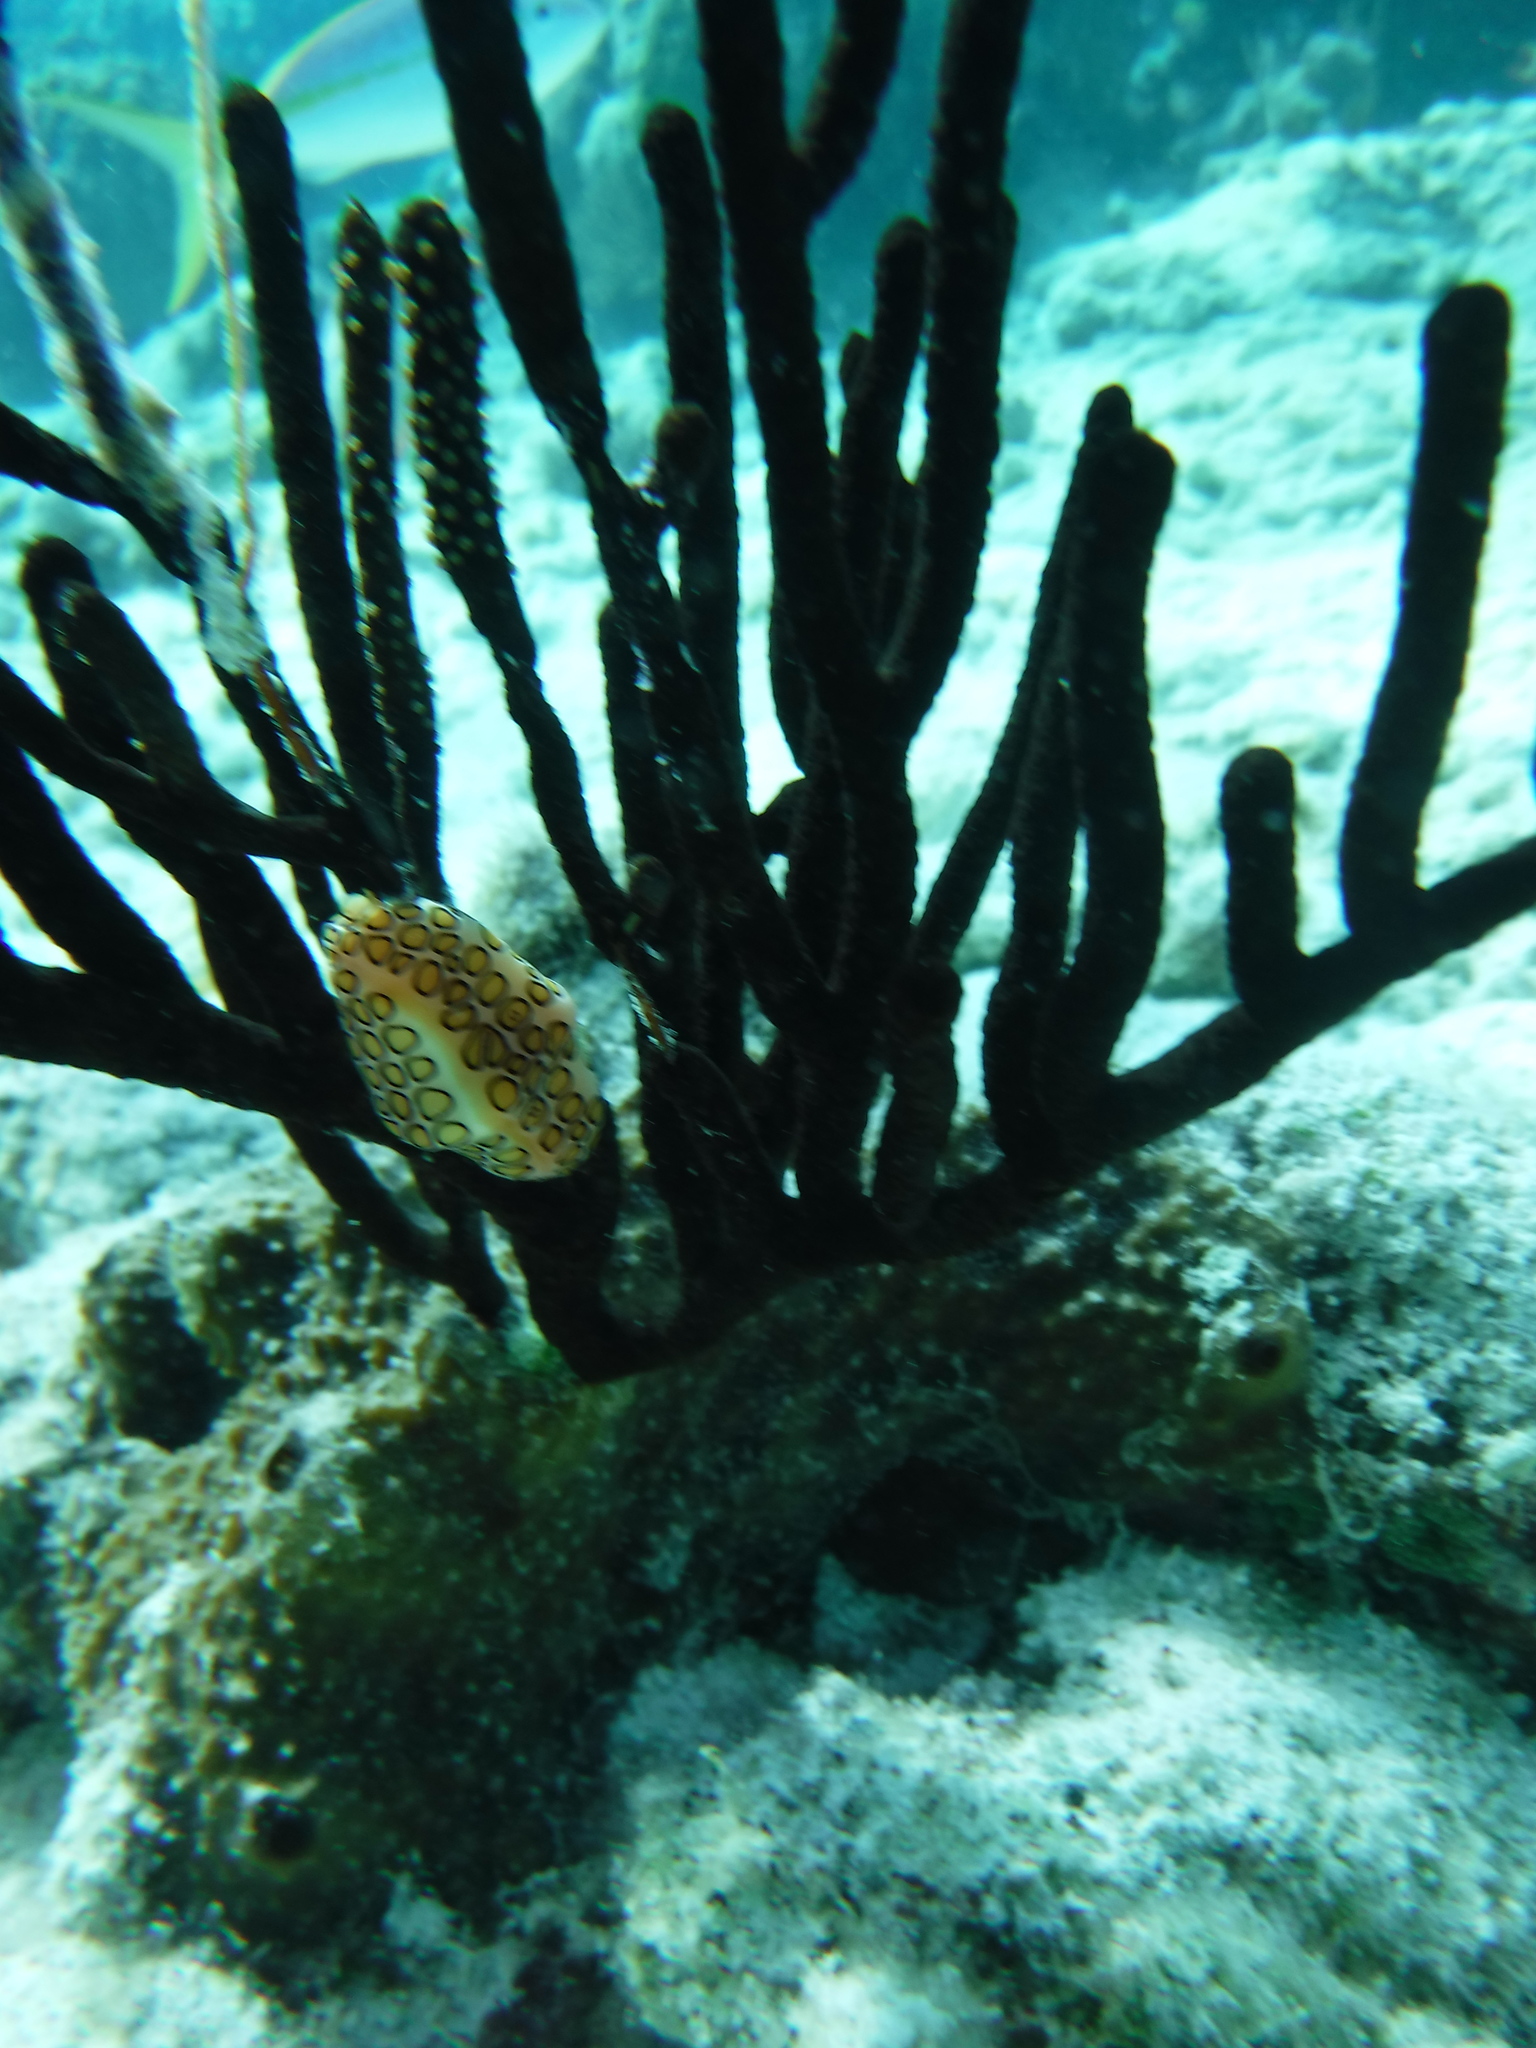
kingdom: Animalia
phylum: Mollusca
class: Gastropoda
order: Littorinimorpha
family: Ovulidae
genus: Cyphoma
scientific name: Cyphoma gibbosum
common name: Flamingo tongue
